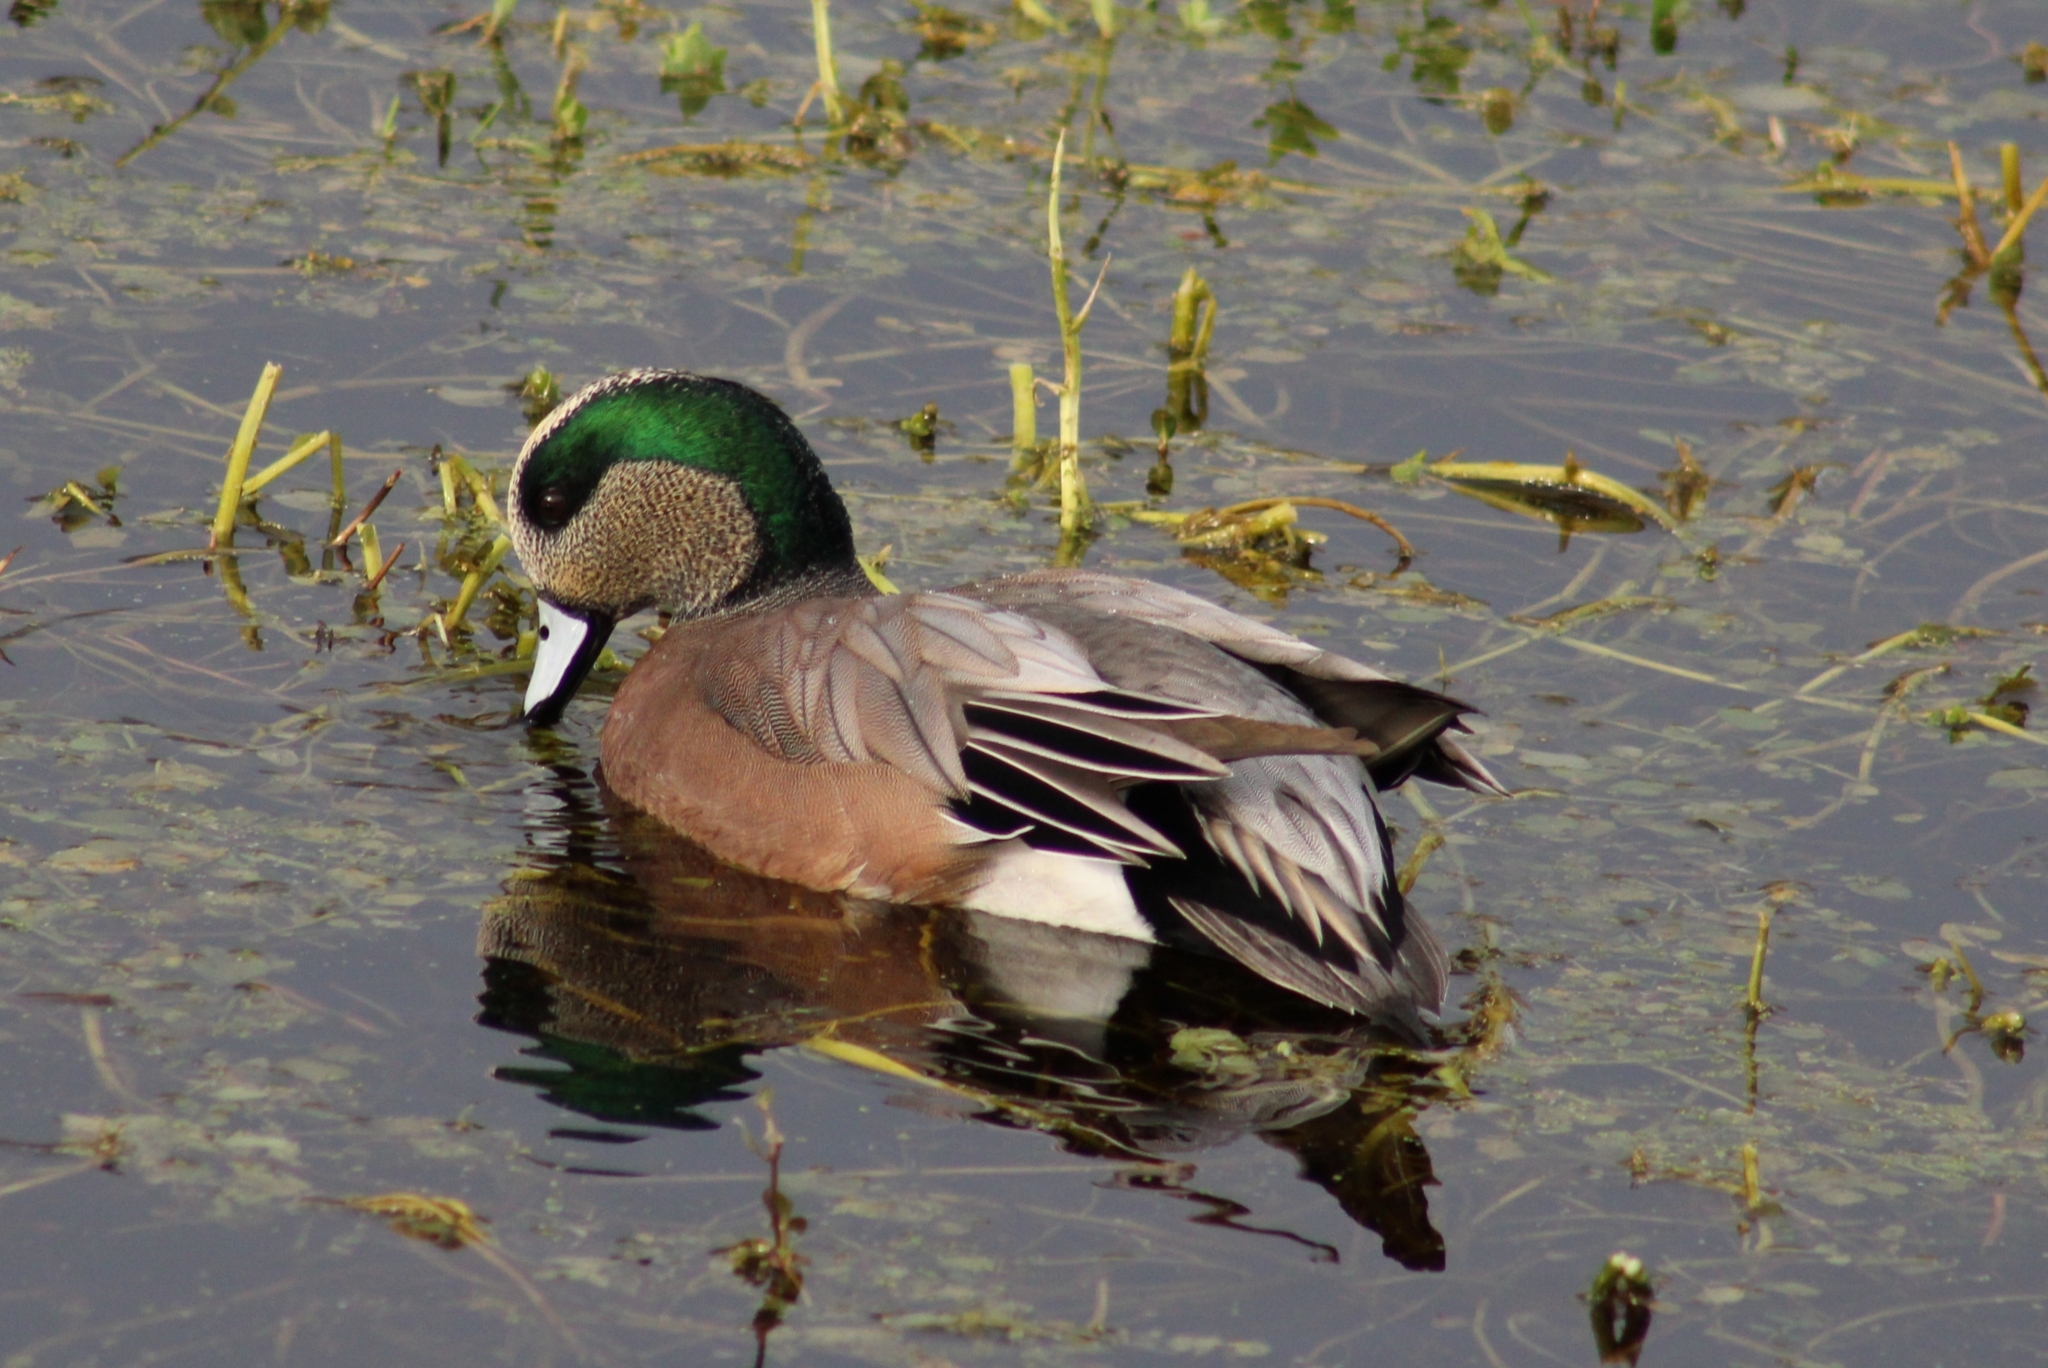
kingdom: Animalia
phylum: Chordata
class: Aves
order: Anseriformes
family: Anatidae
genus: Mareca
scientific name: Mareca americana
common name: American wigeon
